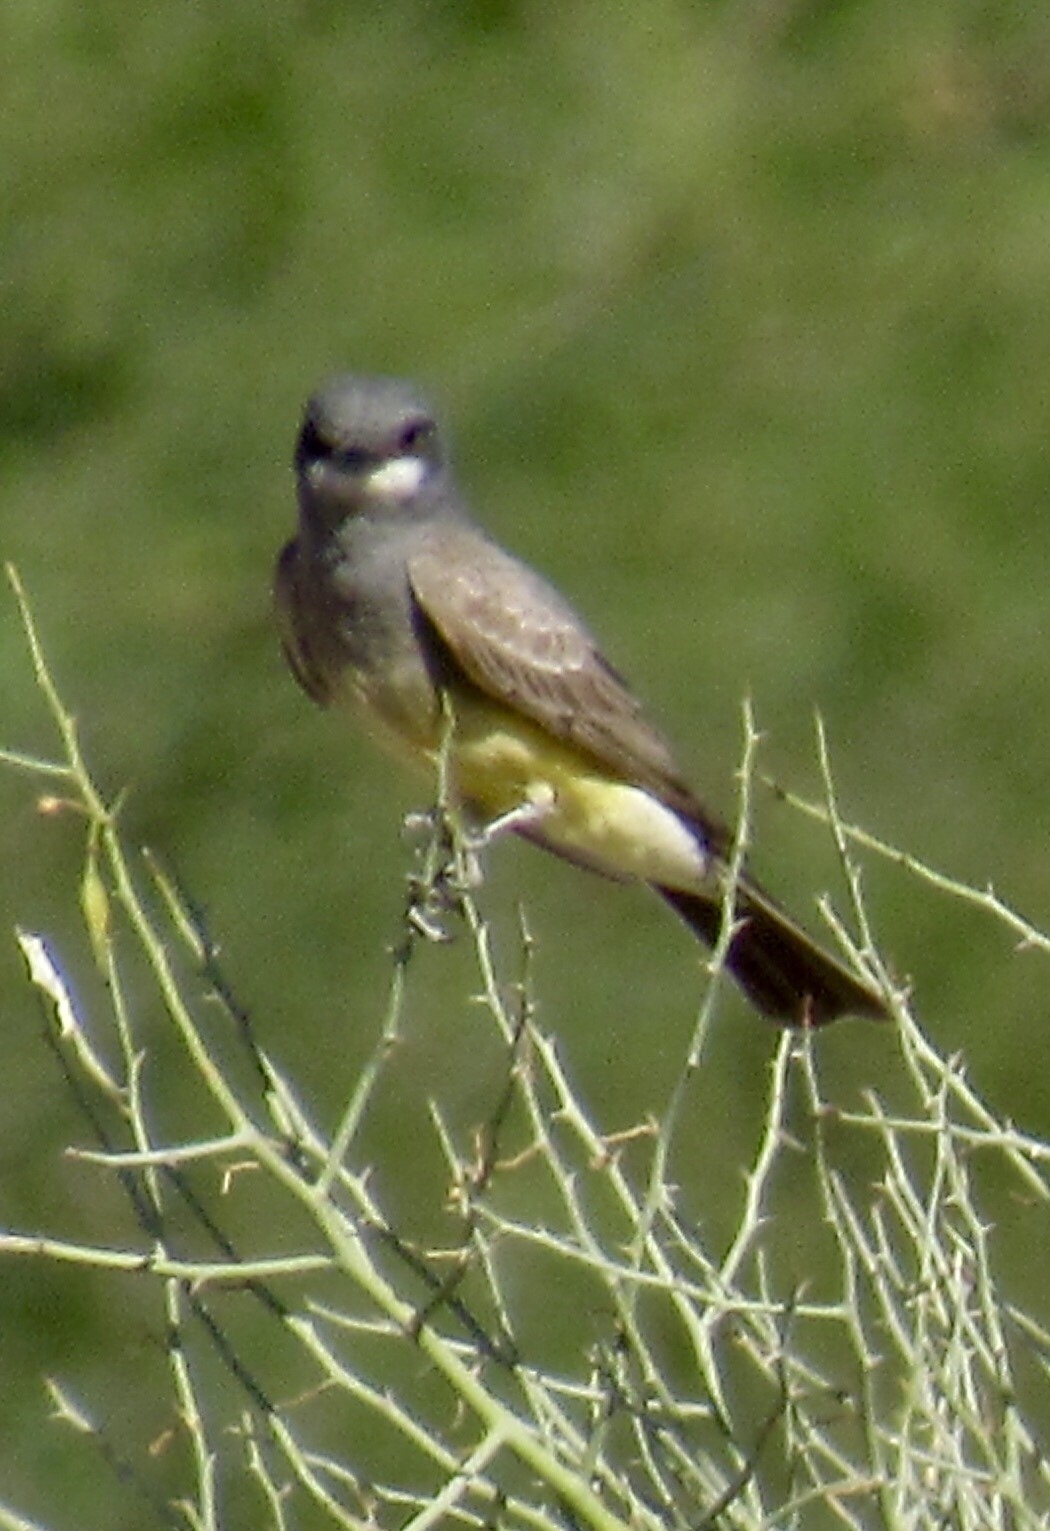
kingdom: Animalia
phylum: Chordata
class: Aves
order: Passeriformes
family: Tyrannidae
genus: Tyrannus
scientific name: Tyrannus vociferans
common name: Cassin's kingbird
